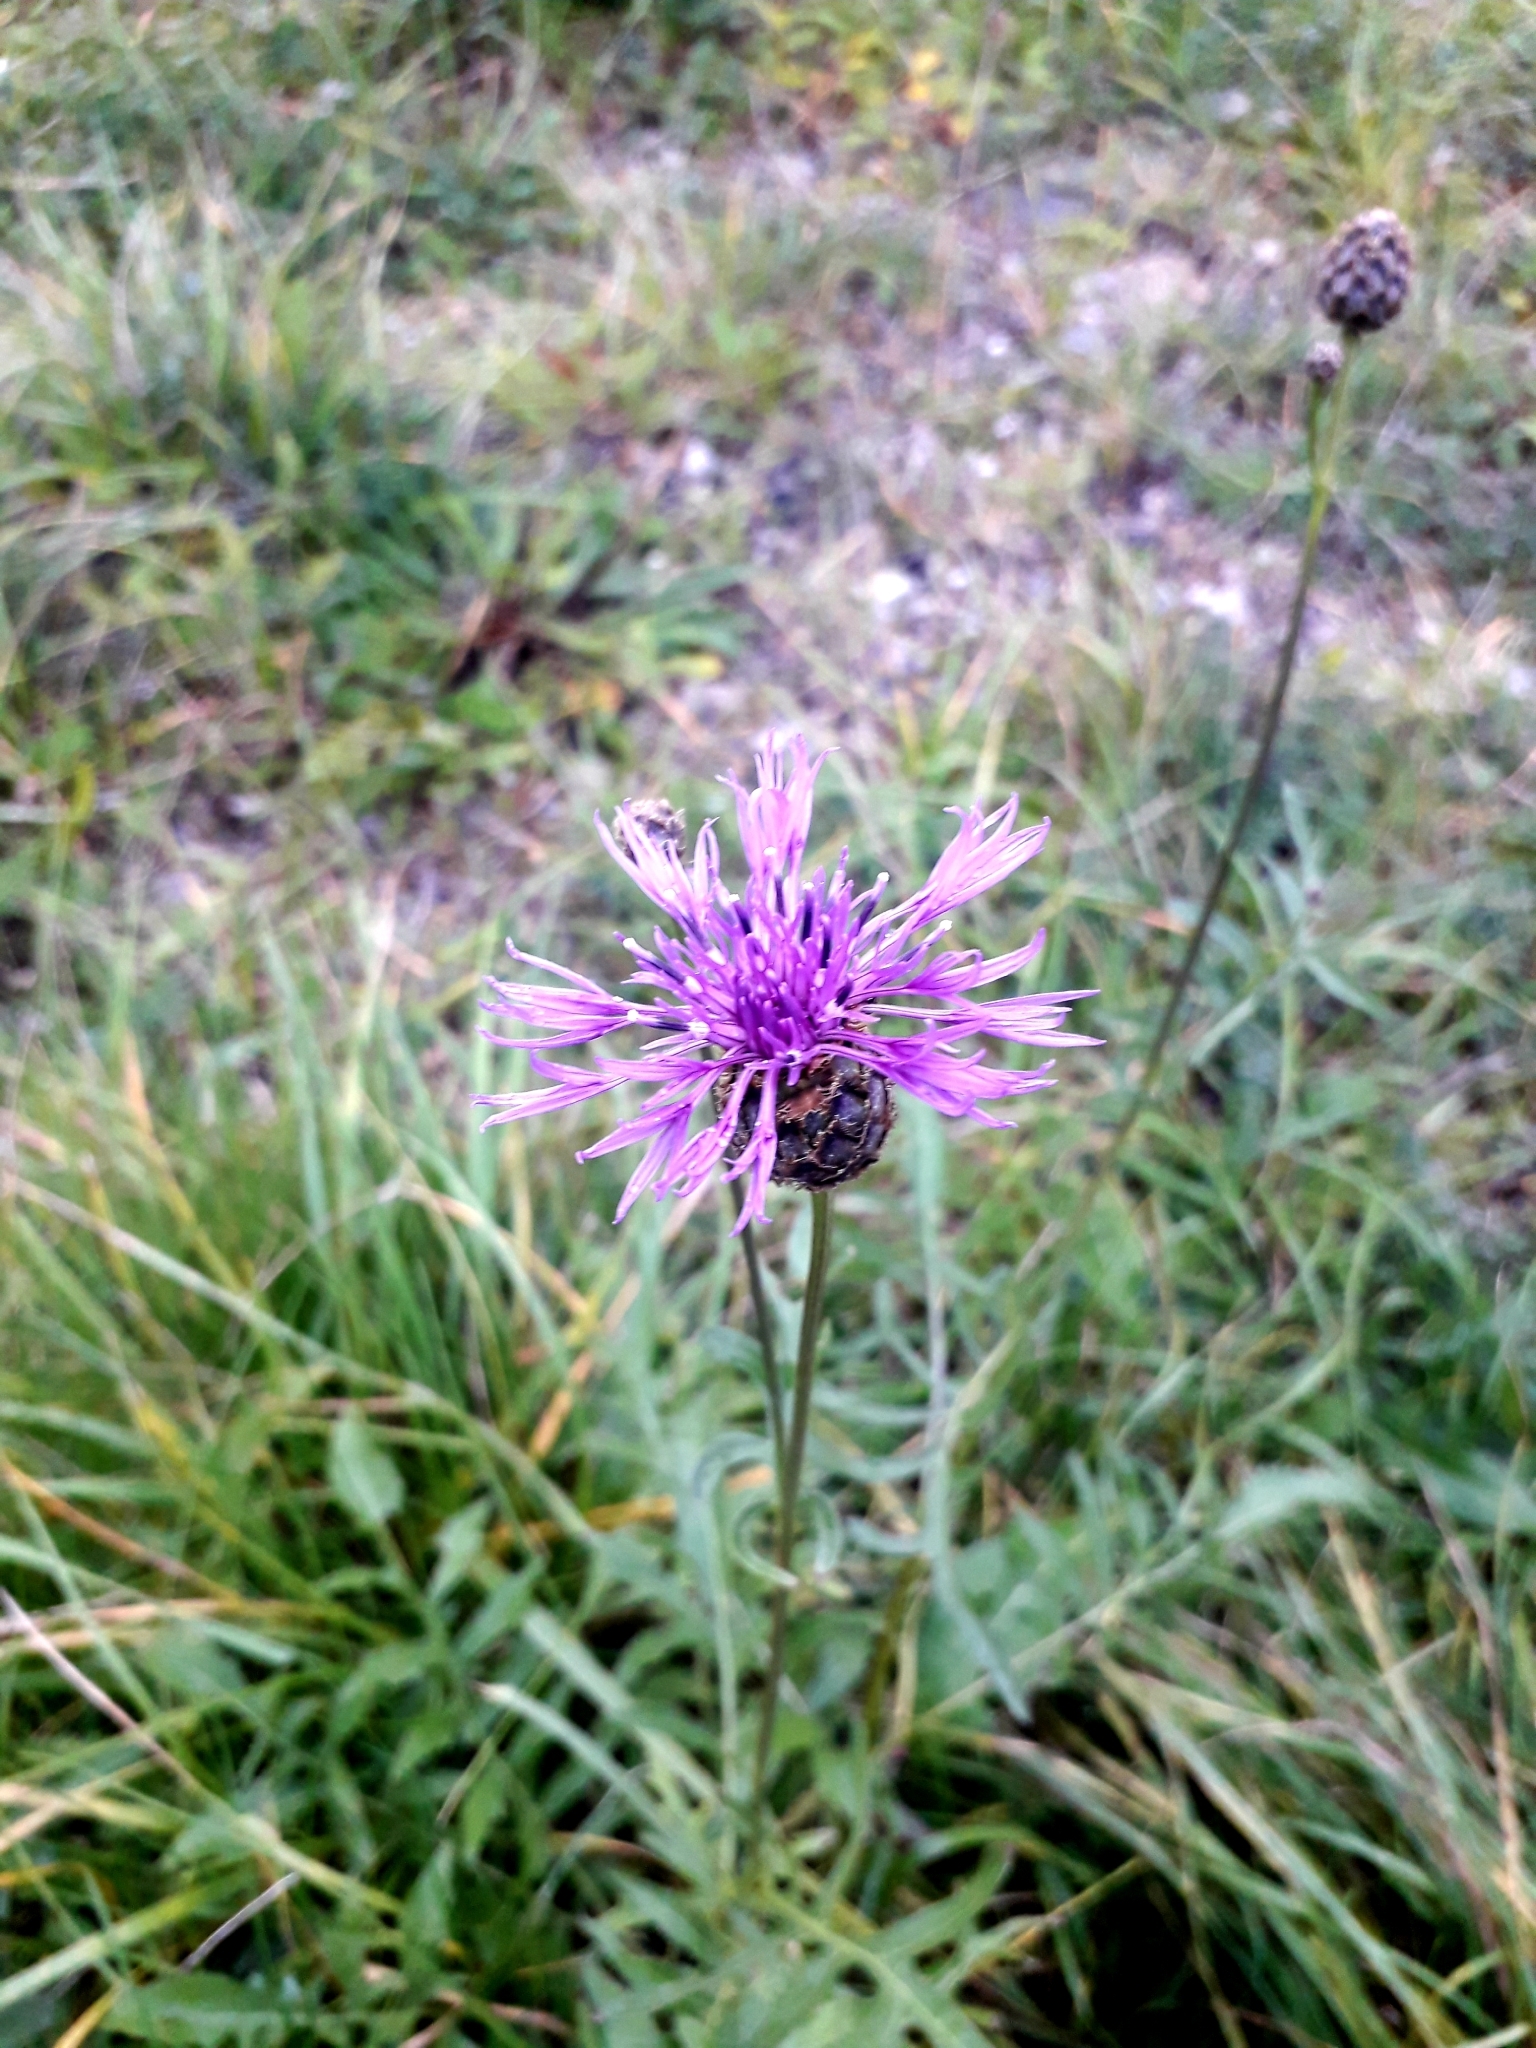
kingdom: Plantae
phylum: Tracheophyta
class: Magnoliopsida
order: Asterales
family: Asteraceae
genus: Centaurea
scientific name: Centaurea scabiosa
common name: Greater knapweed
